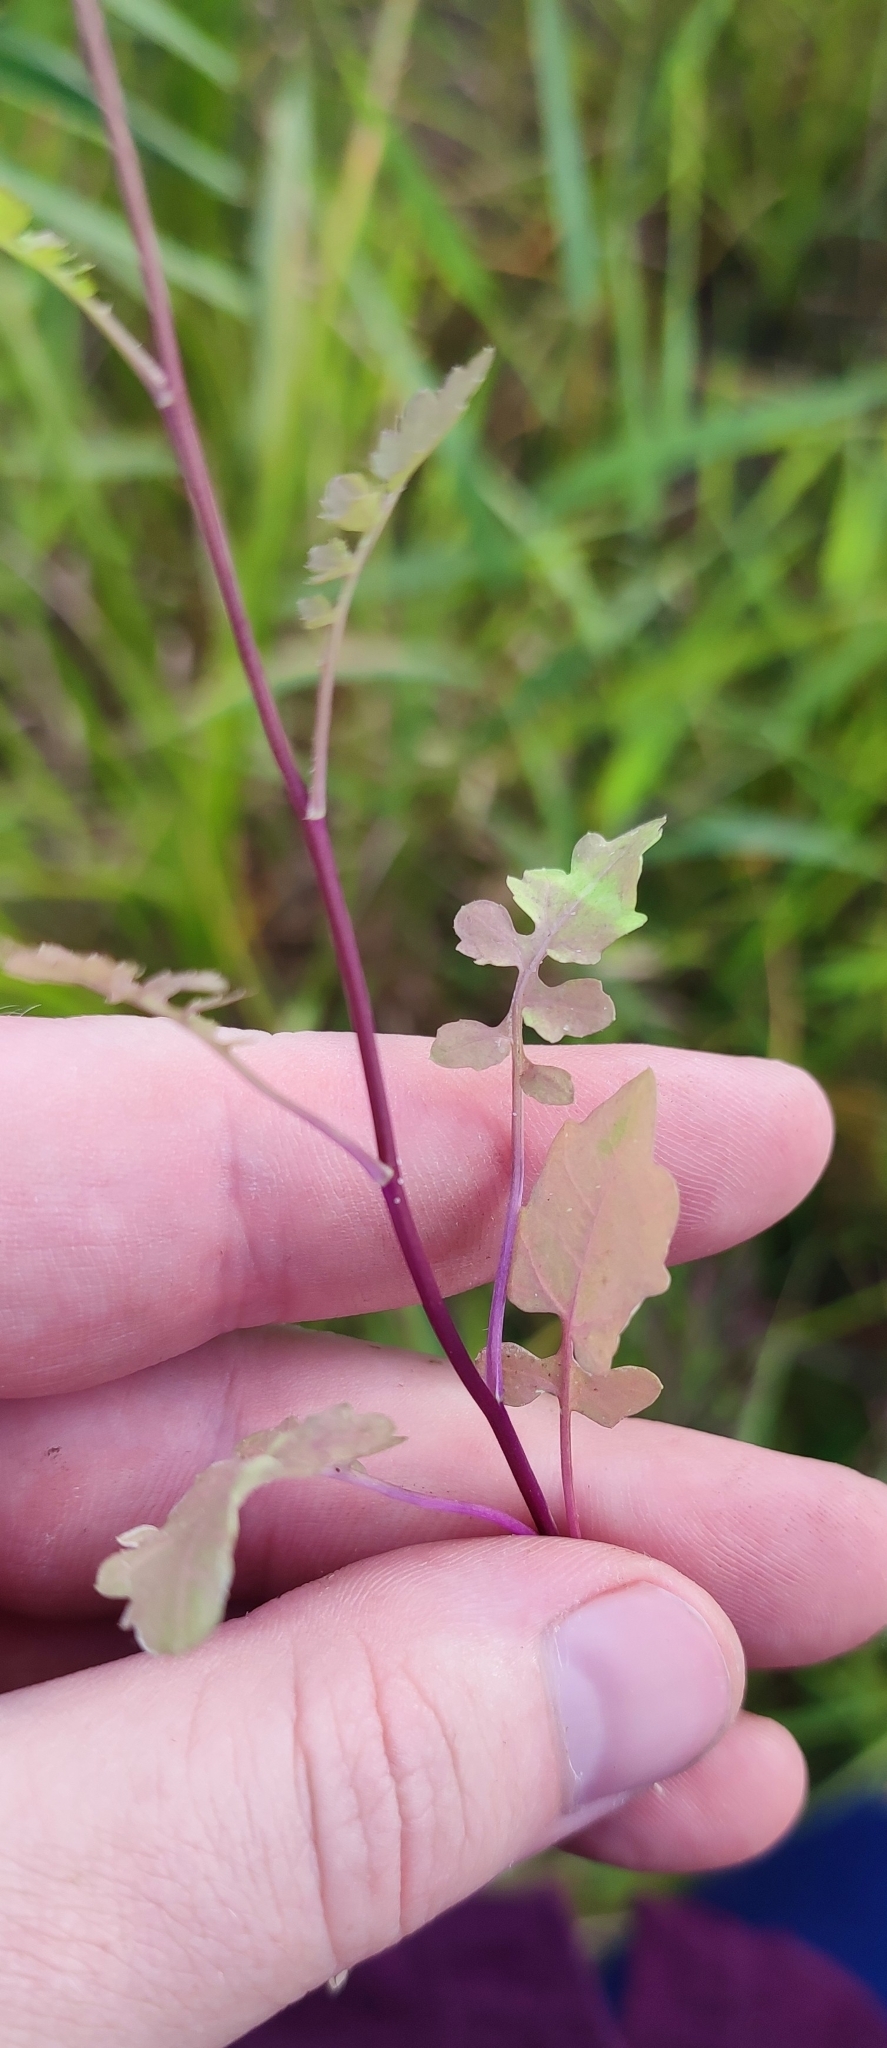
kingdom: Plantae
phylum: Tracheophyta
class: Magnoliopsida
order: Brassicales
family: Brassicaceae
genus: Rorippa
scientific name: Rorippa palustris
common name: Marsh yellow-cress
